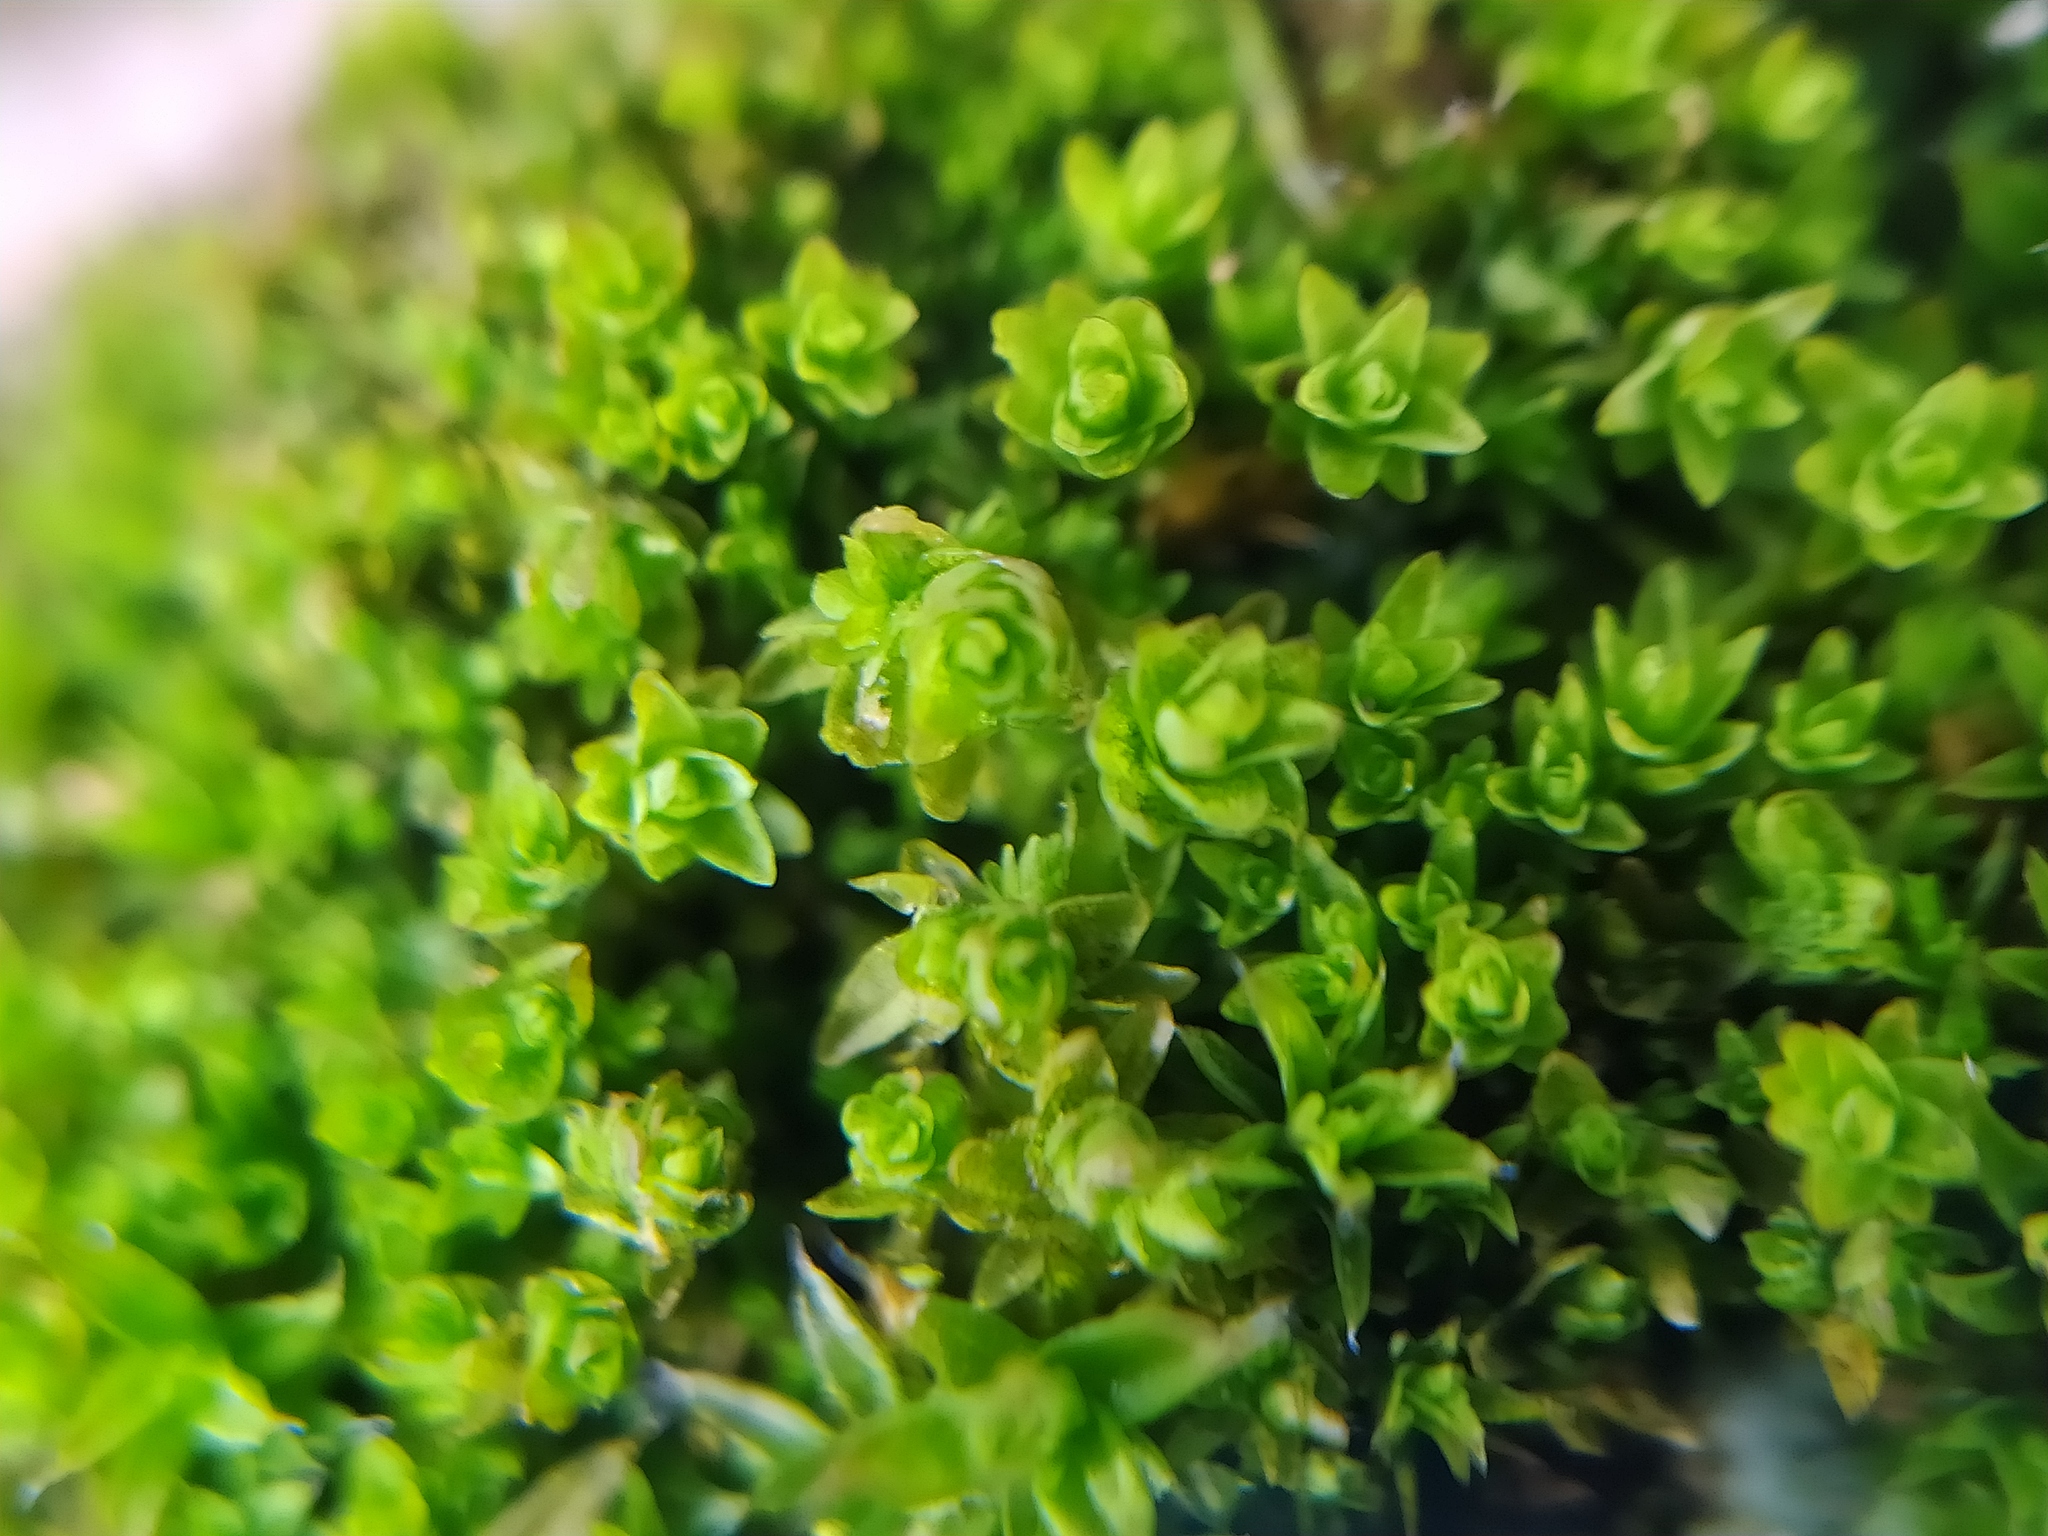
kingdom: Plantae
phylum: Bryophyta
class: Bryopsida
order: Orthotrichales
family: Orthotrichaceae
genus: Nyholmiella
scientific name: Nyholmiella obtusifolia
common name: Blunt-leaved bristle-moss
